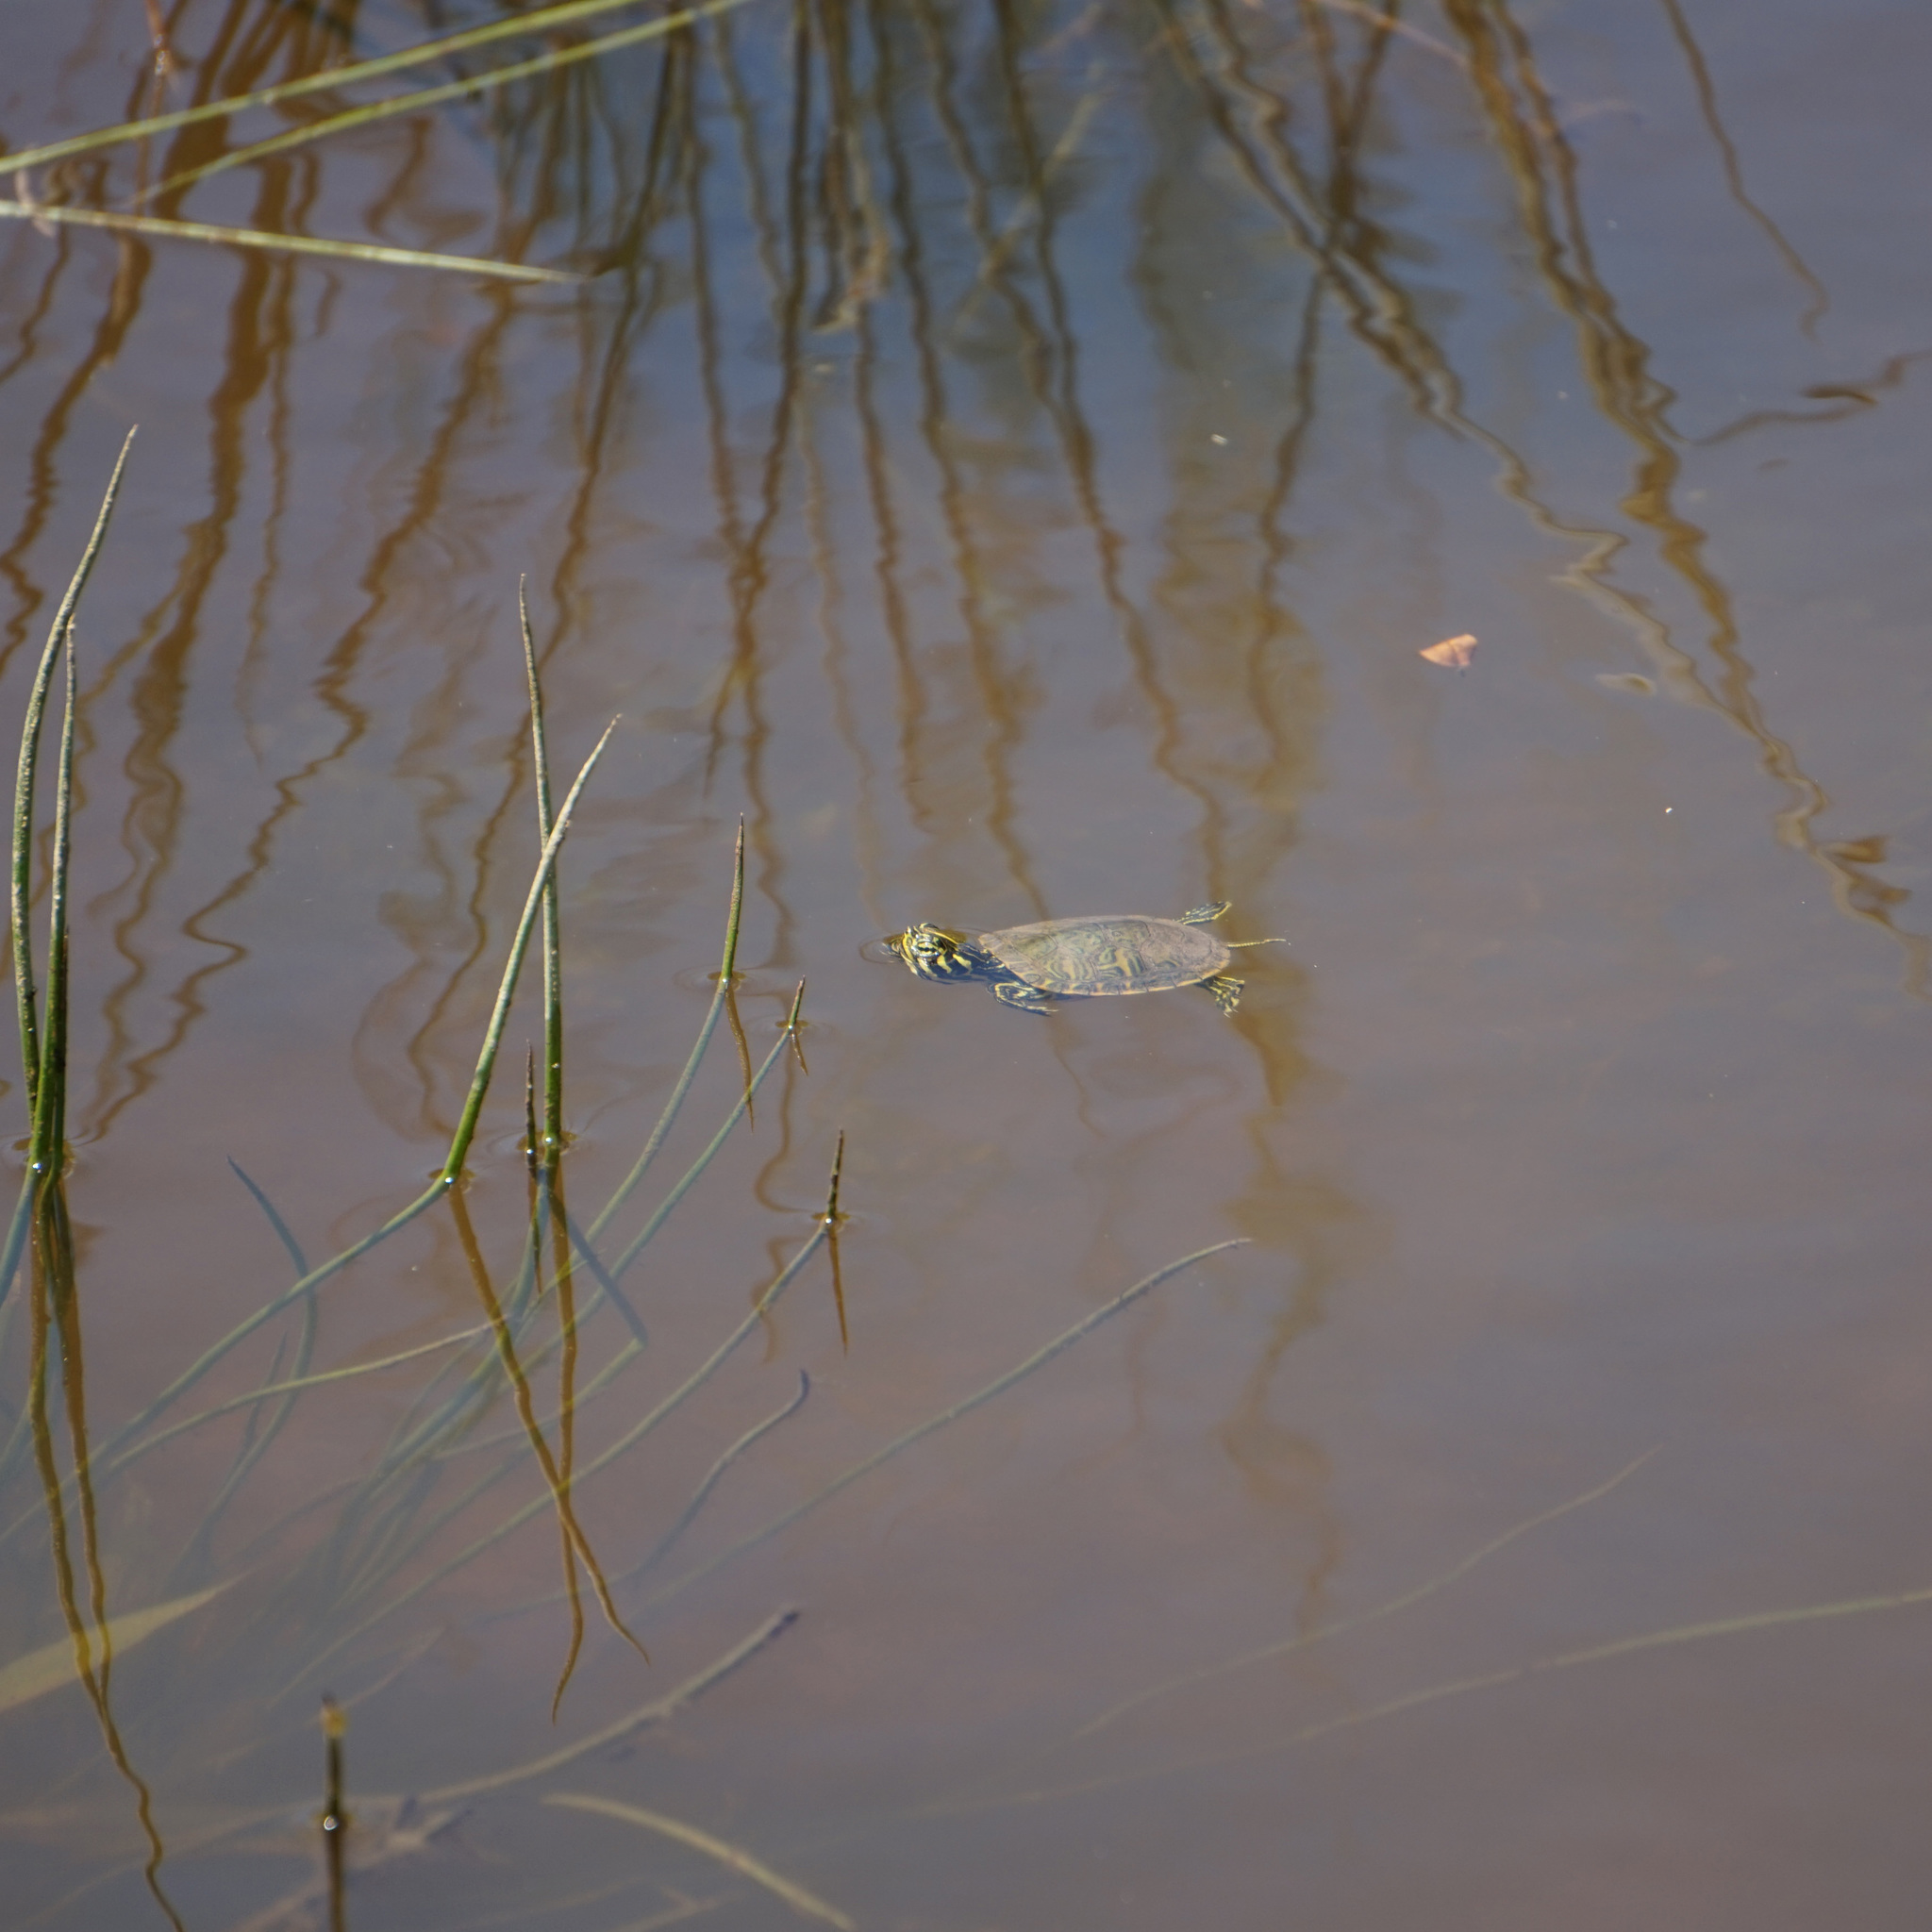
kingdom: Animalia
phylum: Chordata
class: Testudines
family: Emydidae
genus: Pseudemys
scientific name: Pseudemys concinna
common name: Eastern river cooter
